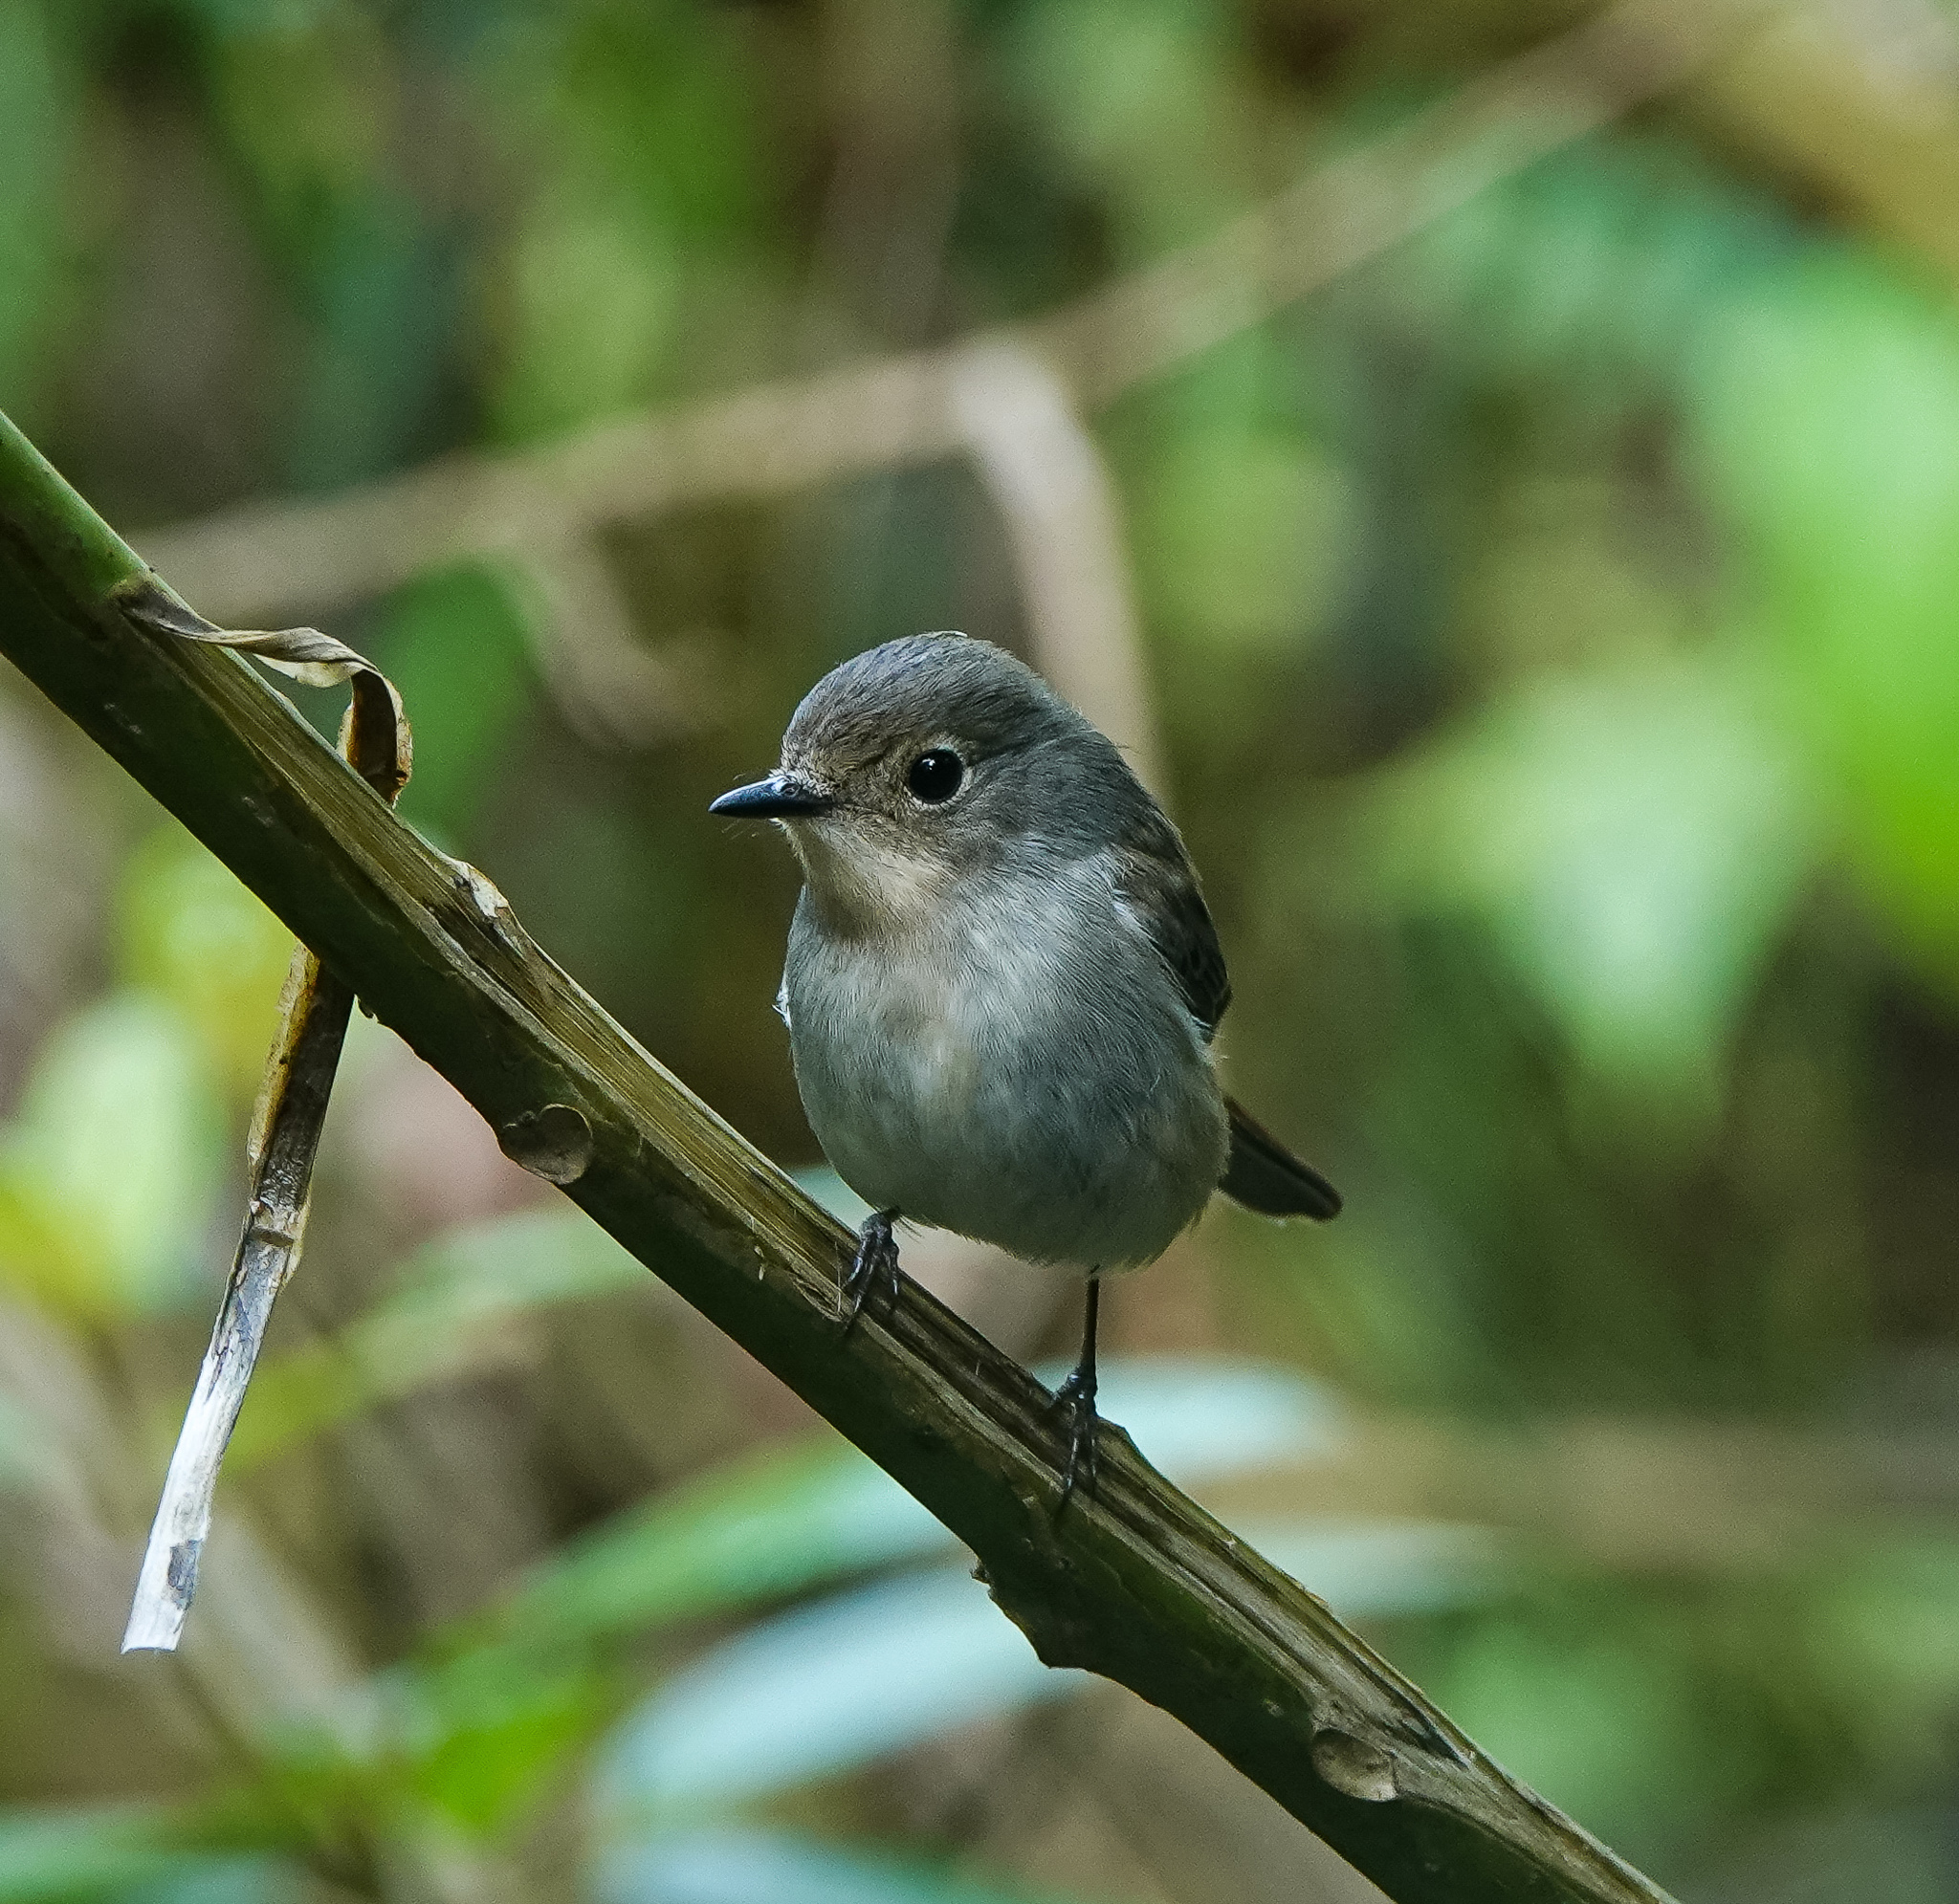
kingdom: Animalia
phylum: Chordata
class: Aves
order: Passeriformes
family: Muscicapidae
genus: Ficedula
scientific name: Ficedula westermanni
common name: Little pied flycatcher
